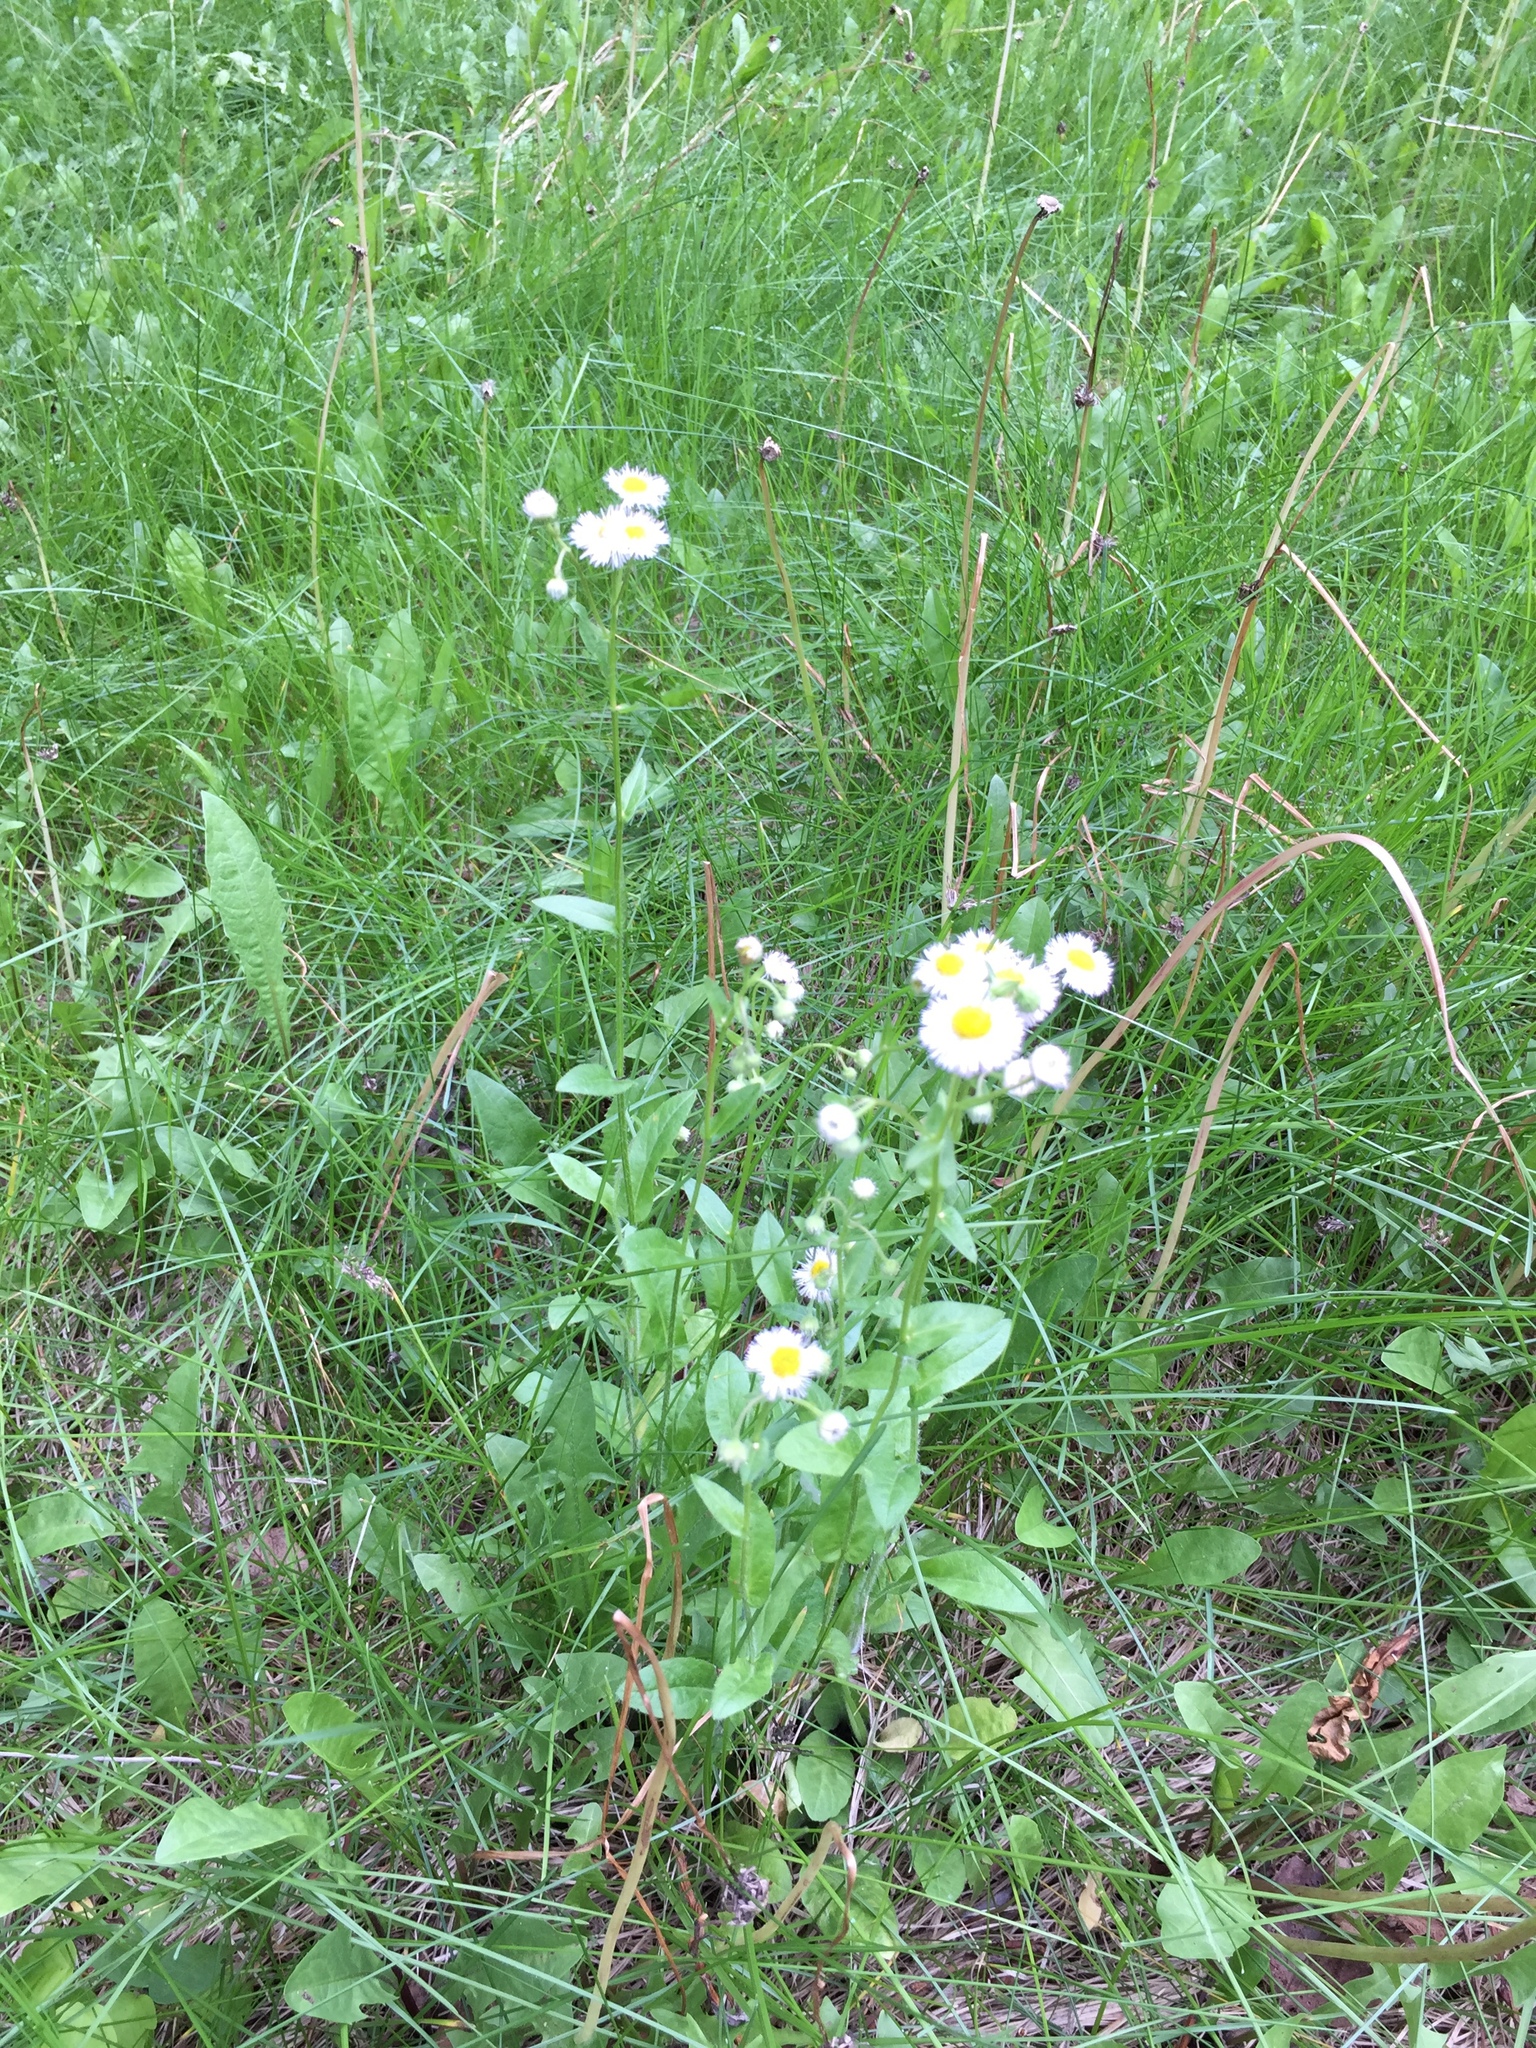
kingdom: Plantae
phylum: Tracheophyta
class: Magnoliopsida
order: Asterales
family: Asteraceae
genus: Erigeron
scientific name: Erigeron philadelphicus
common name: Robin's-plantain
